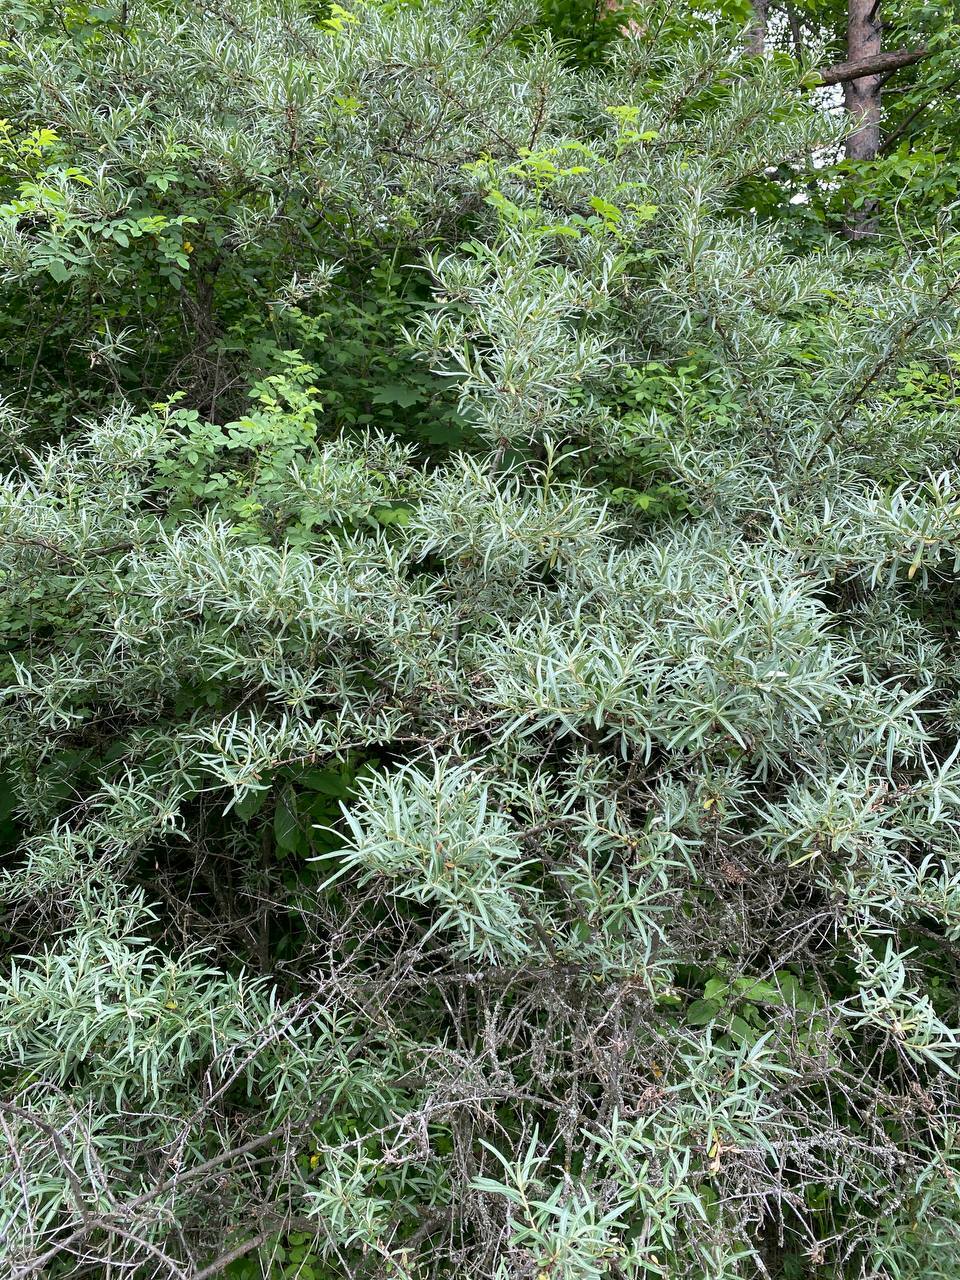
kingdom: Plantae
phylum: Tracheophyta
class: Magnoliopsida
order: Rosales
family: Elaeagnaceae
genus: Hippophae
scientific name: Hippophae rhamnoides
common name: Sea-buckthorn
